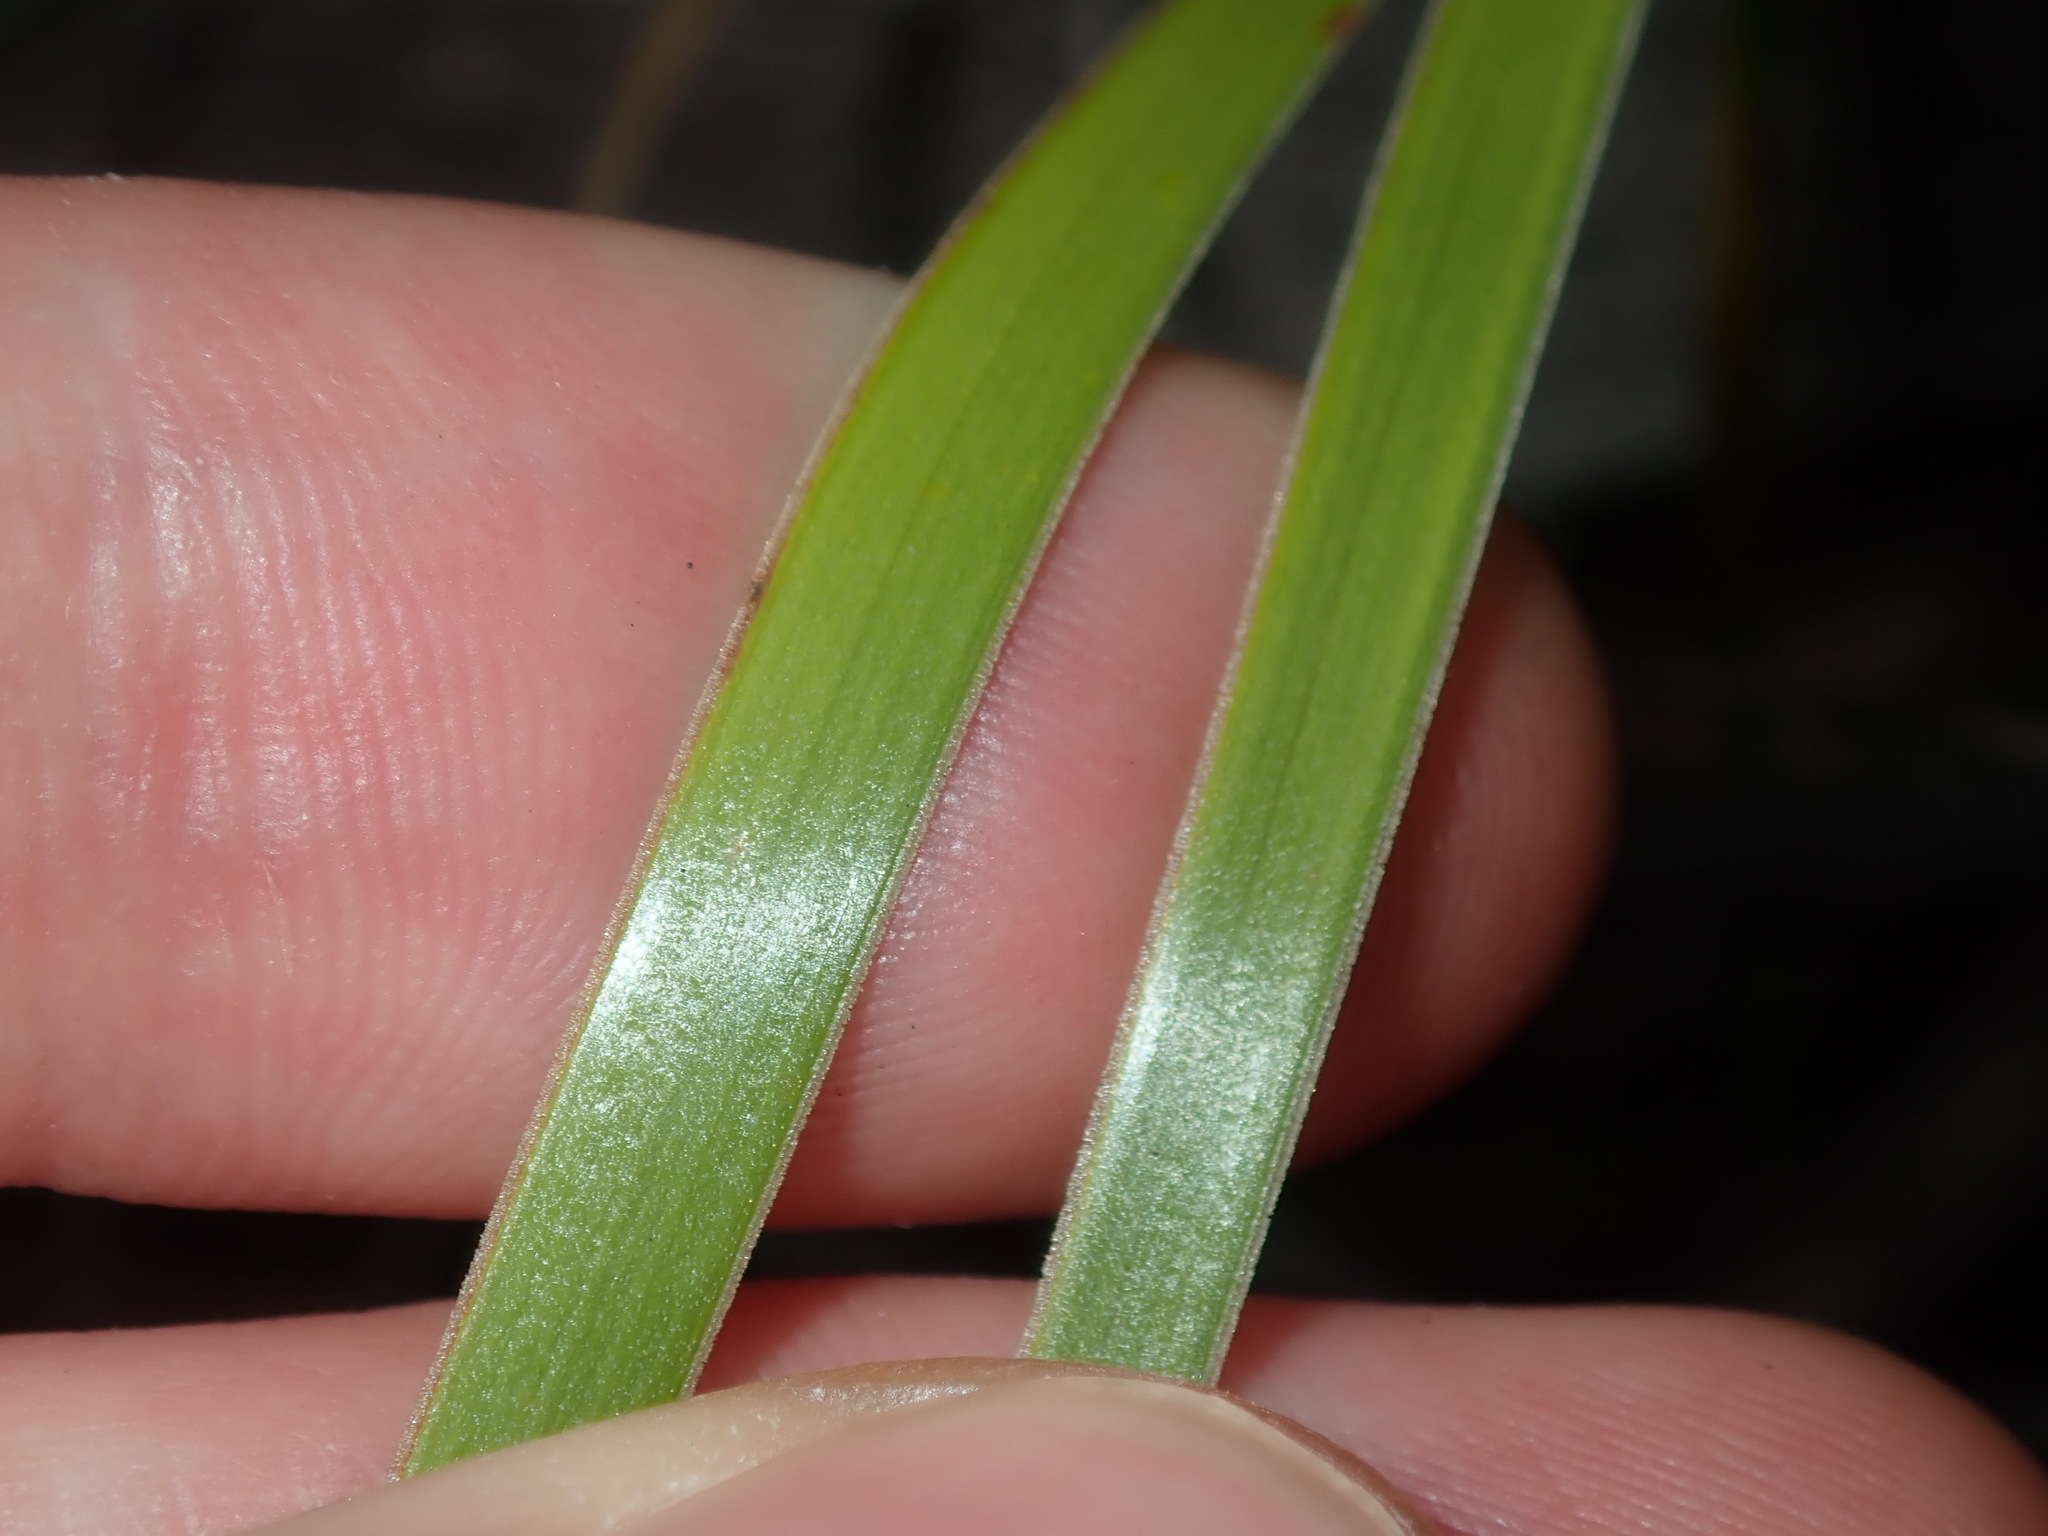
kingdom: Plantae
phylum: Tracheophyta
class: Liliopsida
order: Poales
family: Xyridaceae
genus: Xyris
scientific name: Xyris complanata
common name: Hawai'i yelloweyed grass
